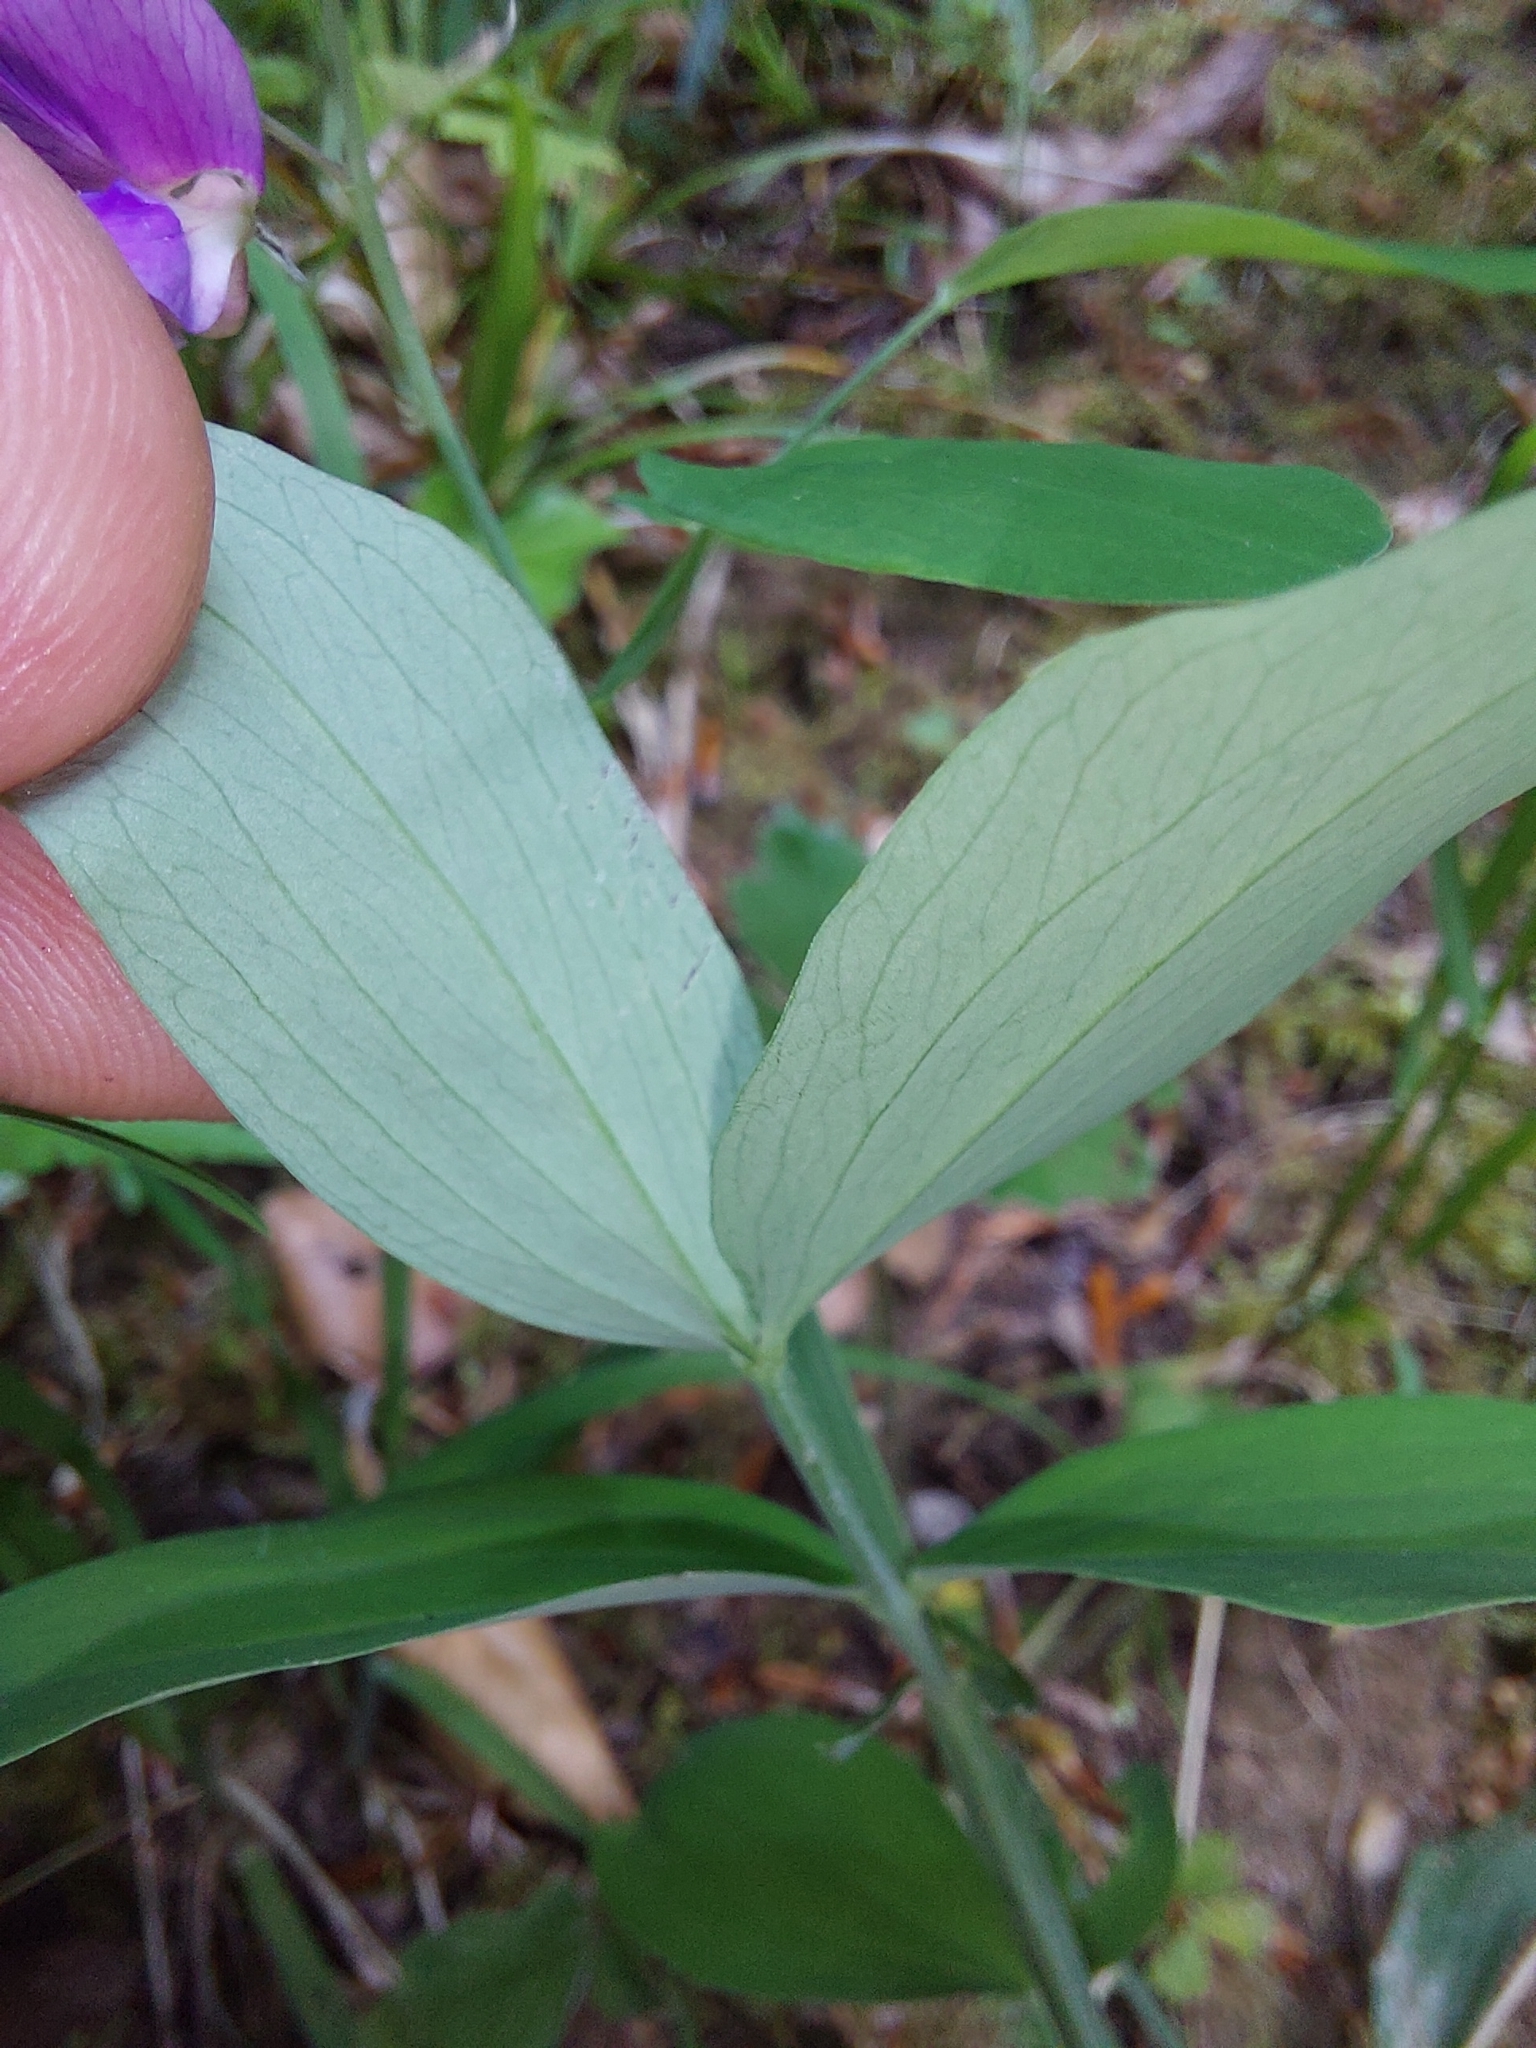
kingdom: Plantae
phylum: Tracheophyta
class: Magnoliopsida
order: Fabales
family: Fabaceae
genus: Lathyrus
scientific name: Lathyrus linifolius
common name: Bitter-vetch
